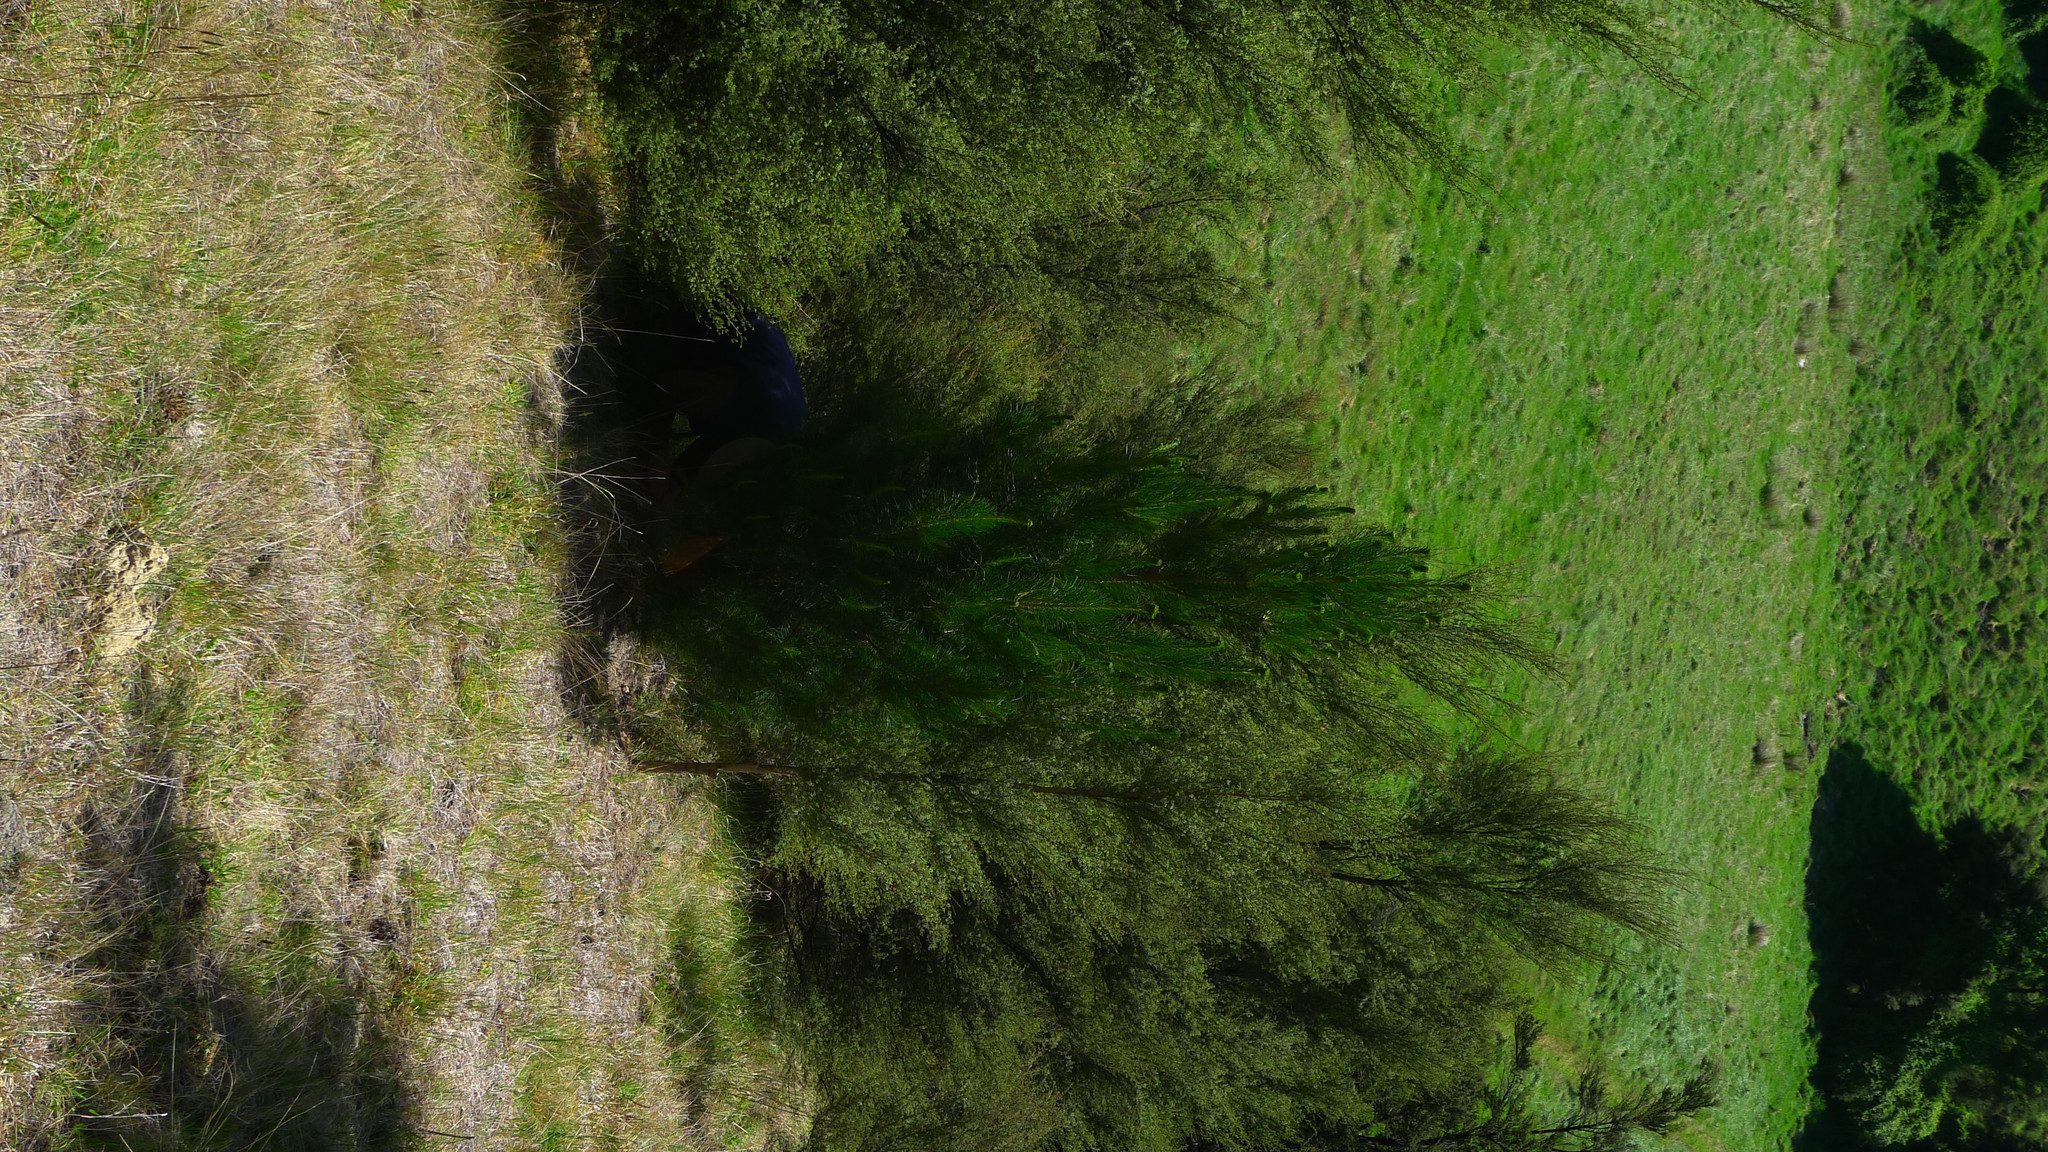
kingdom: Plantae
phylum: Tracheophyta
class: Pinopsida
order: Pinales
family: Pinaceae
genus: Pinus
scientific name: Pinus radiata
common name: Monterey pine
